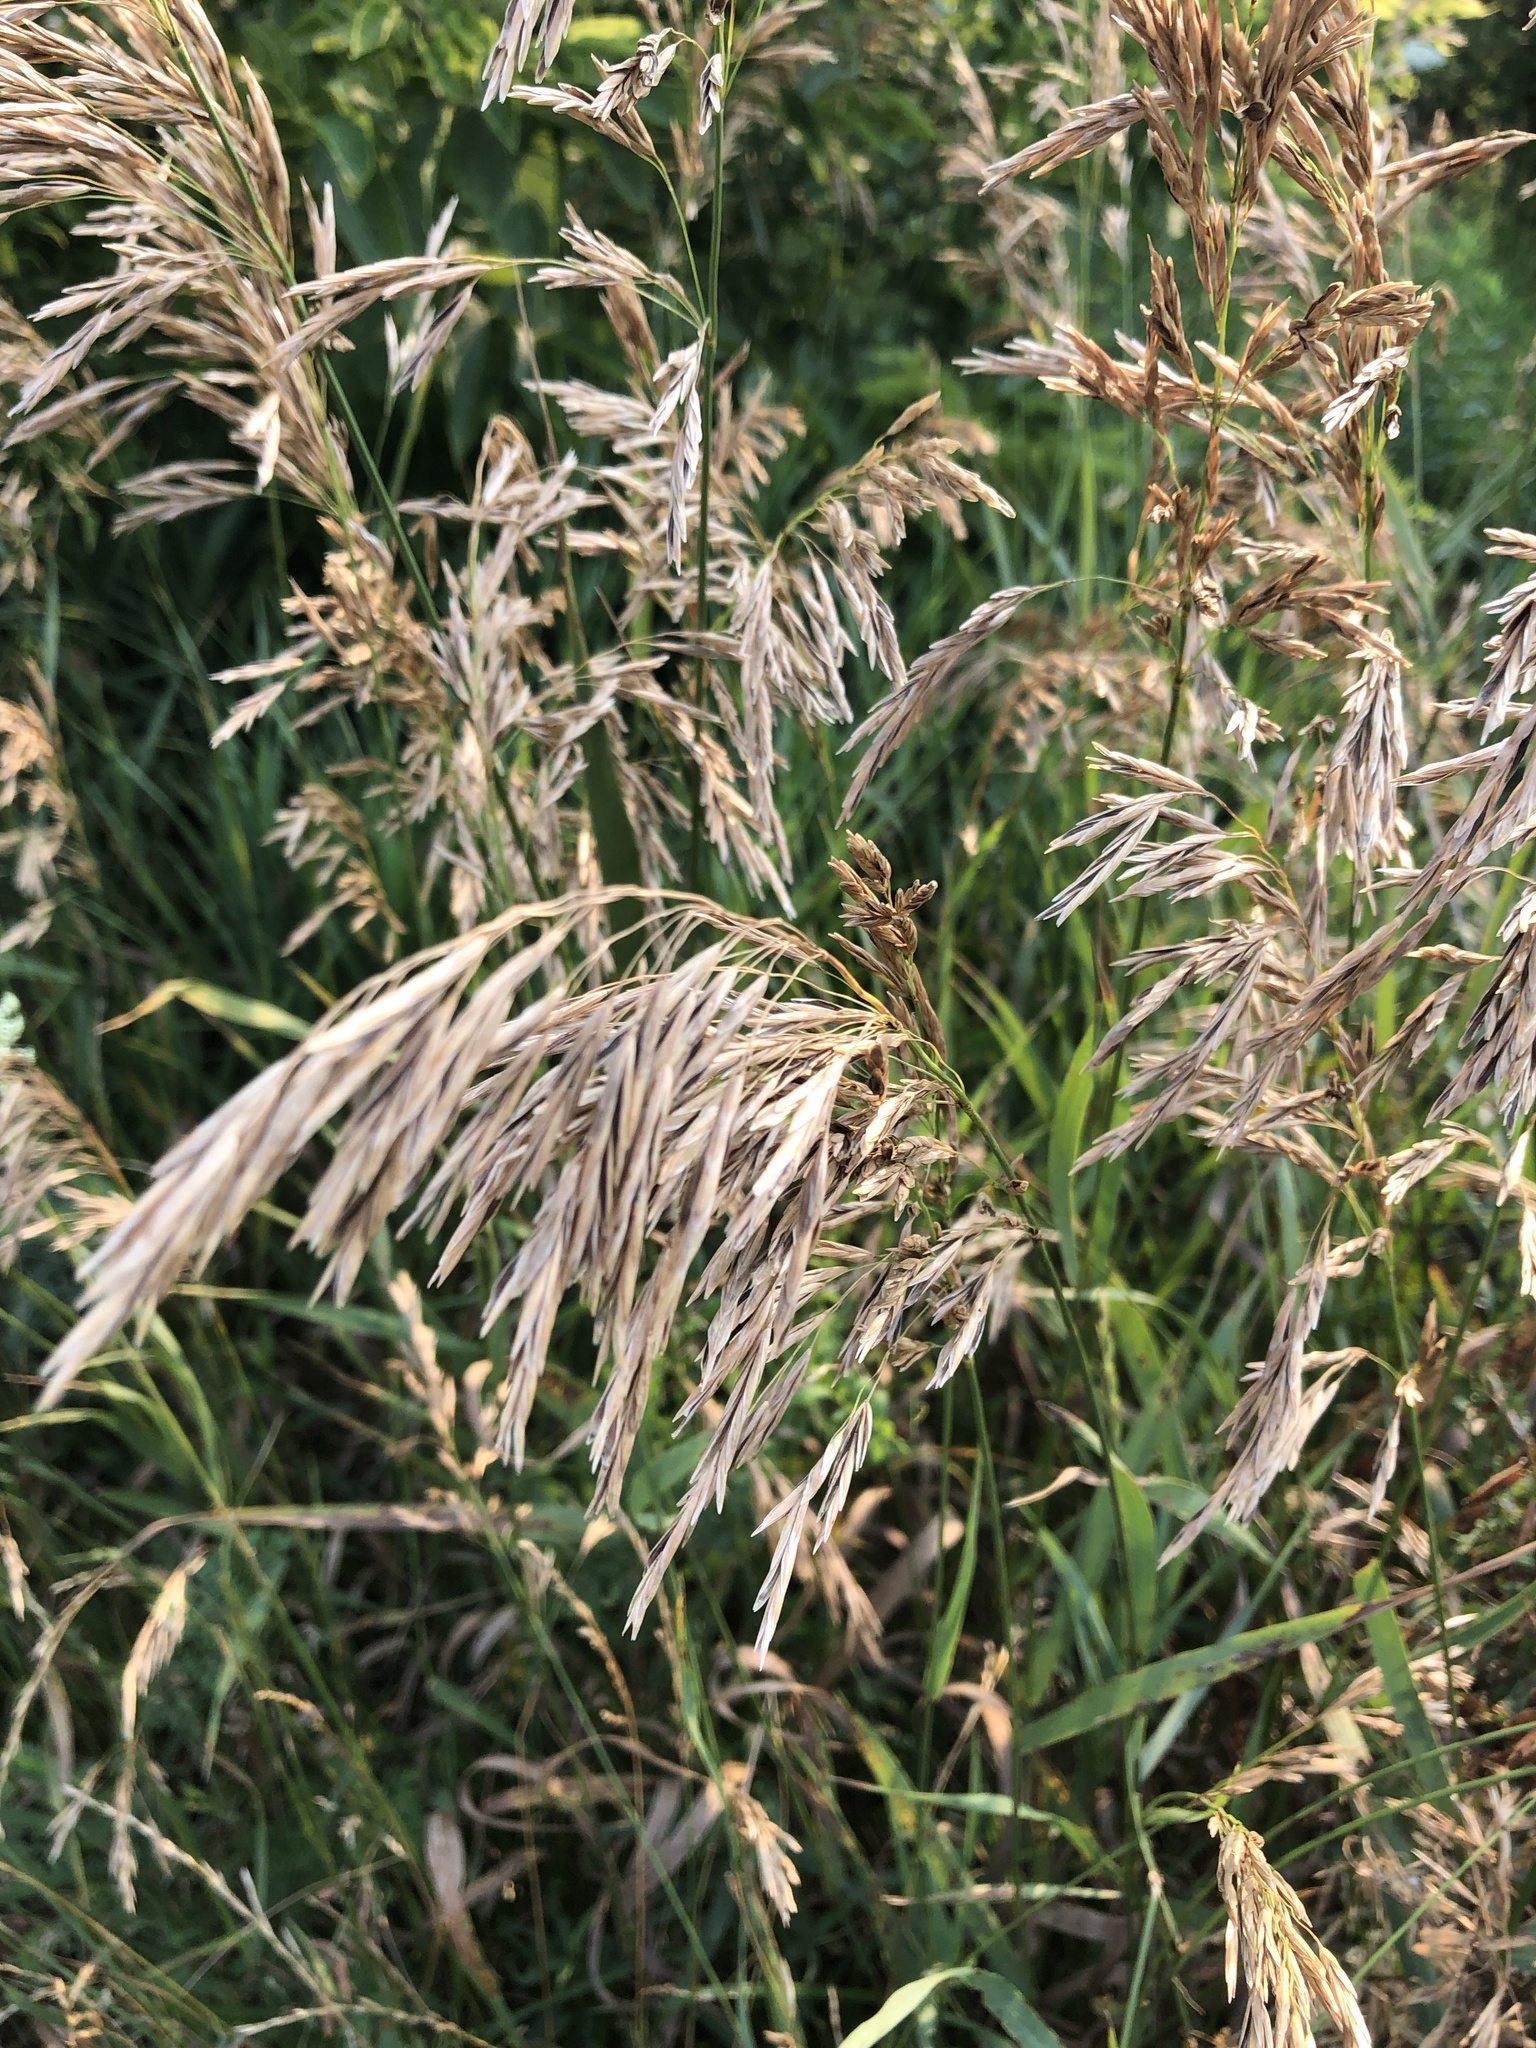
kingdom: Plantae
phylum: Tracheophyta
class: Liliopsida
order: Poales
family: Poaceae
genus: Bromus
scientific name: Bromus inermis
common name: Smooth brome
